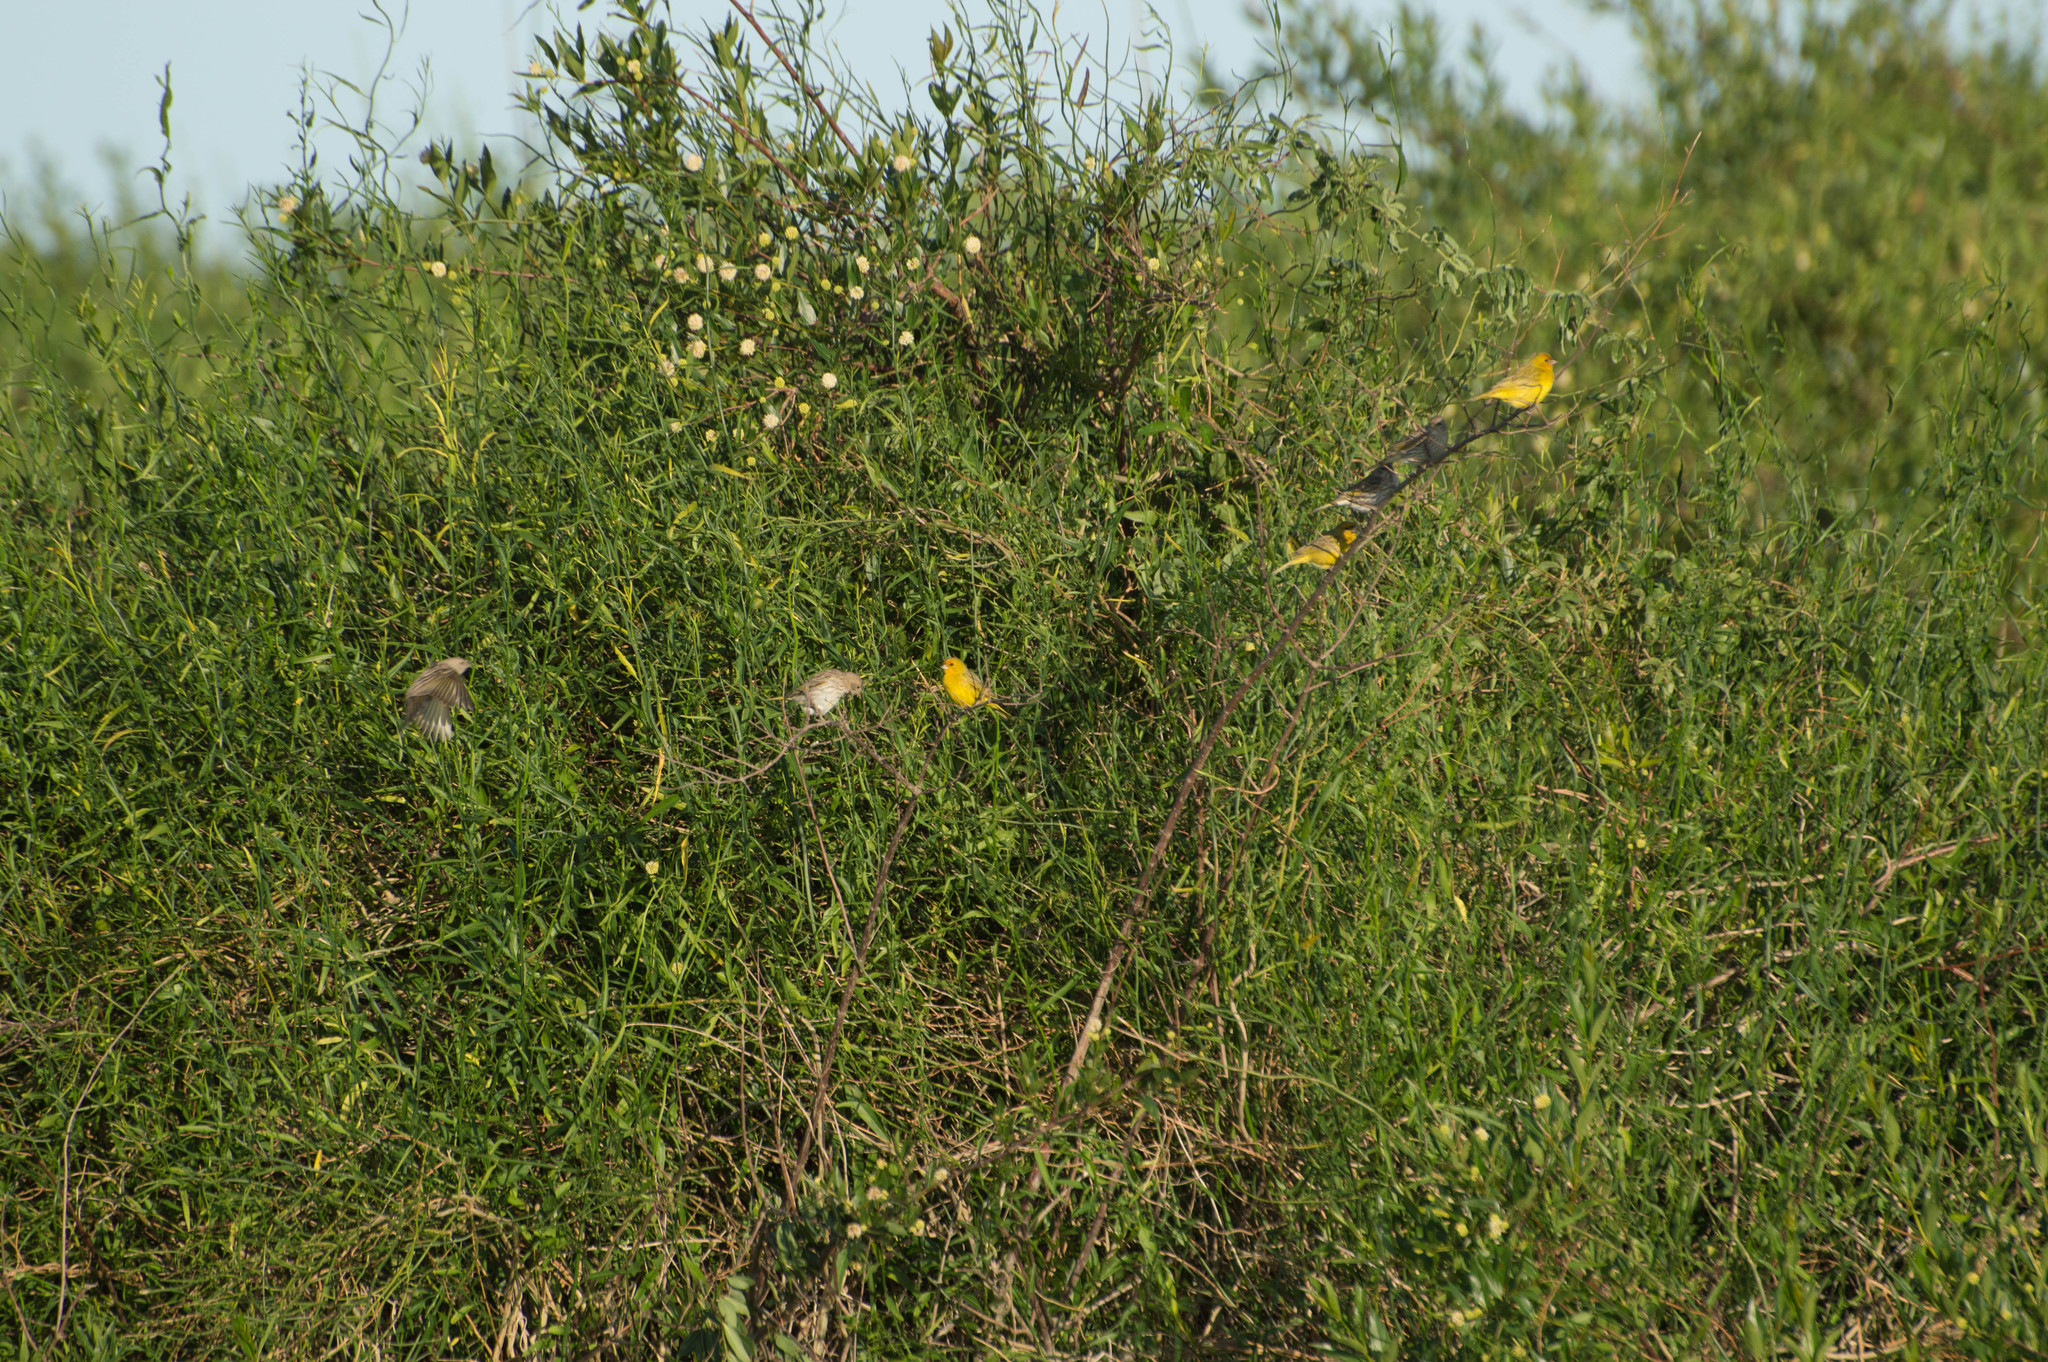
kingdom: Animalia
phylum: Chordata
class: Aves
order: Passeriformes
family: Thraupidae
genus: Sicalis
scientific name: Sicalis flaveola
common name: Saffron finch
